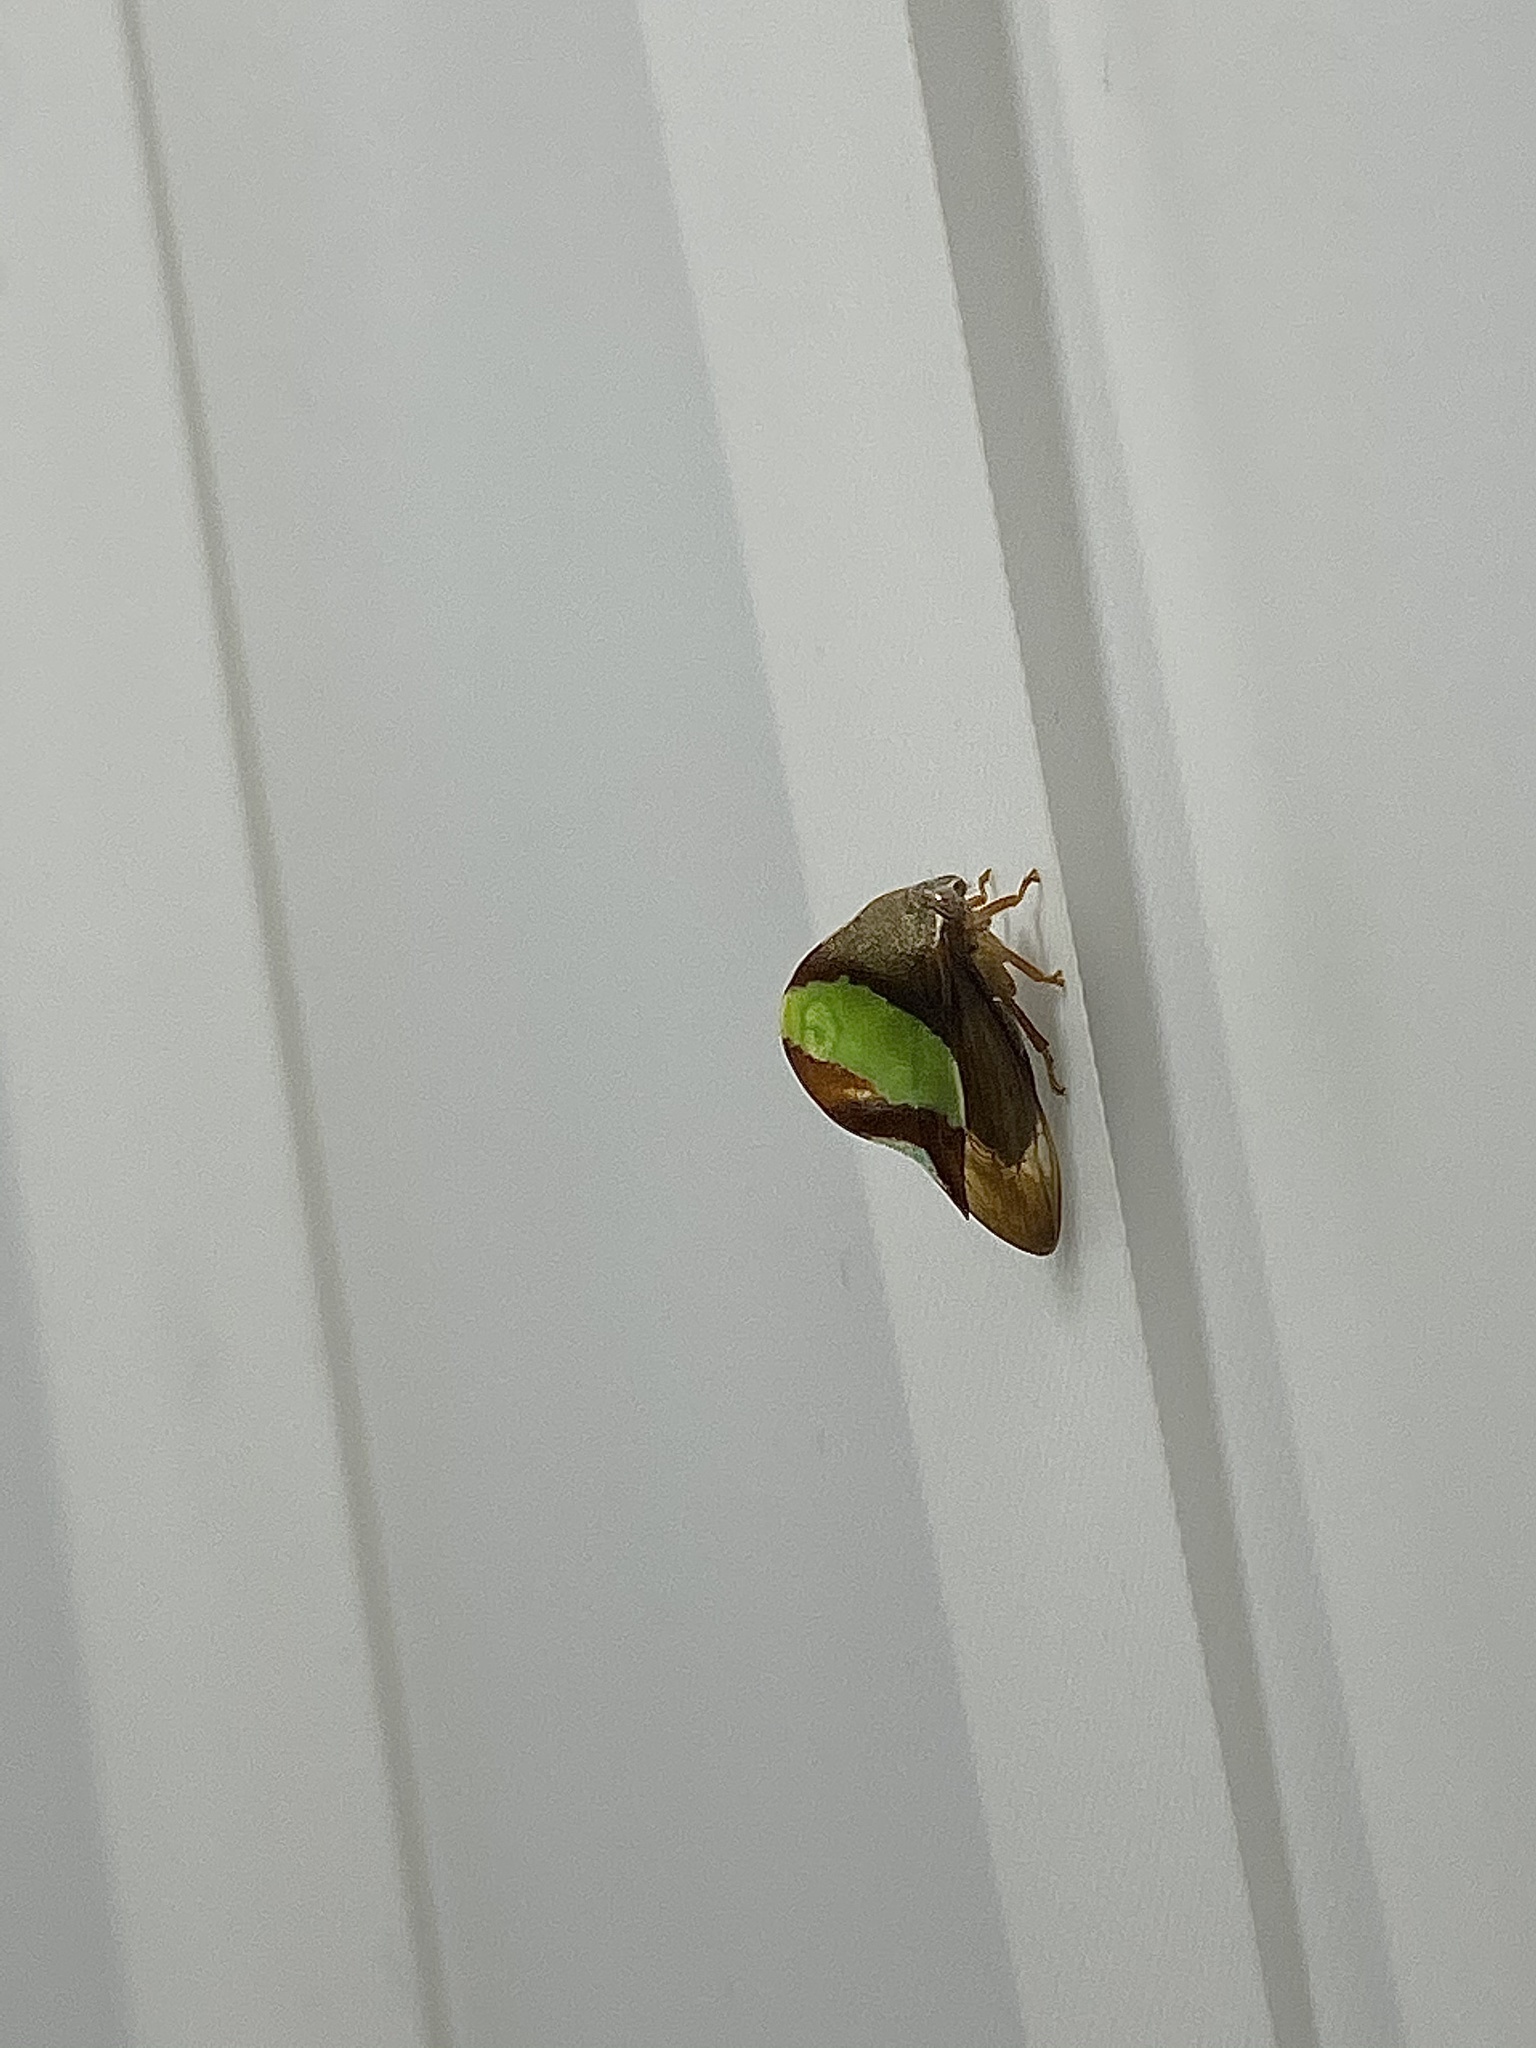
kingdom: Animalia
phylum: Arthropoda
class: Insecta
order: Hemiptera
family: Membracidae
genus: Smilia
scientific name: Smilia fasciata
